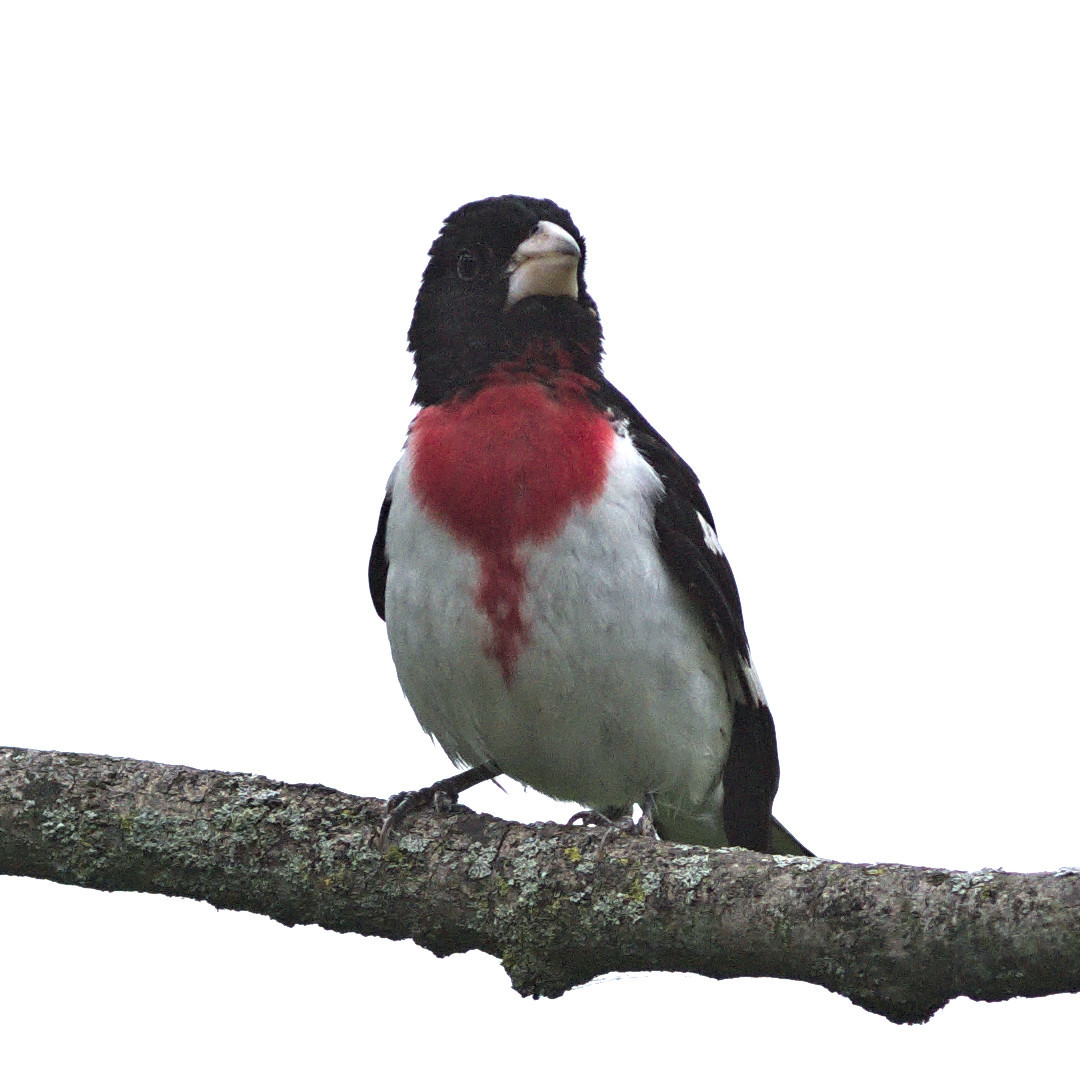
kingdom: Animalia
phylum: Chordata
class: Aves
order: Passeriformes
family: Cardinalidae
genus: Pheucticus
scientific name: Pheucticus ludovicianus
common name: Rose-breasted grosbeak
